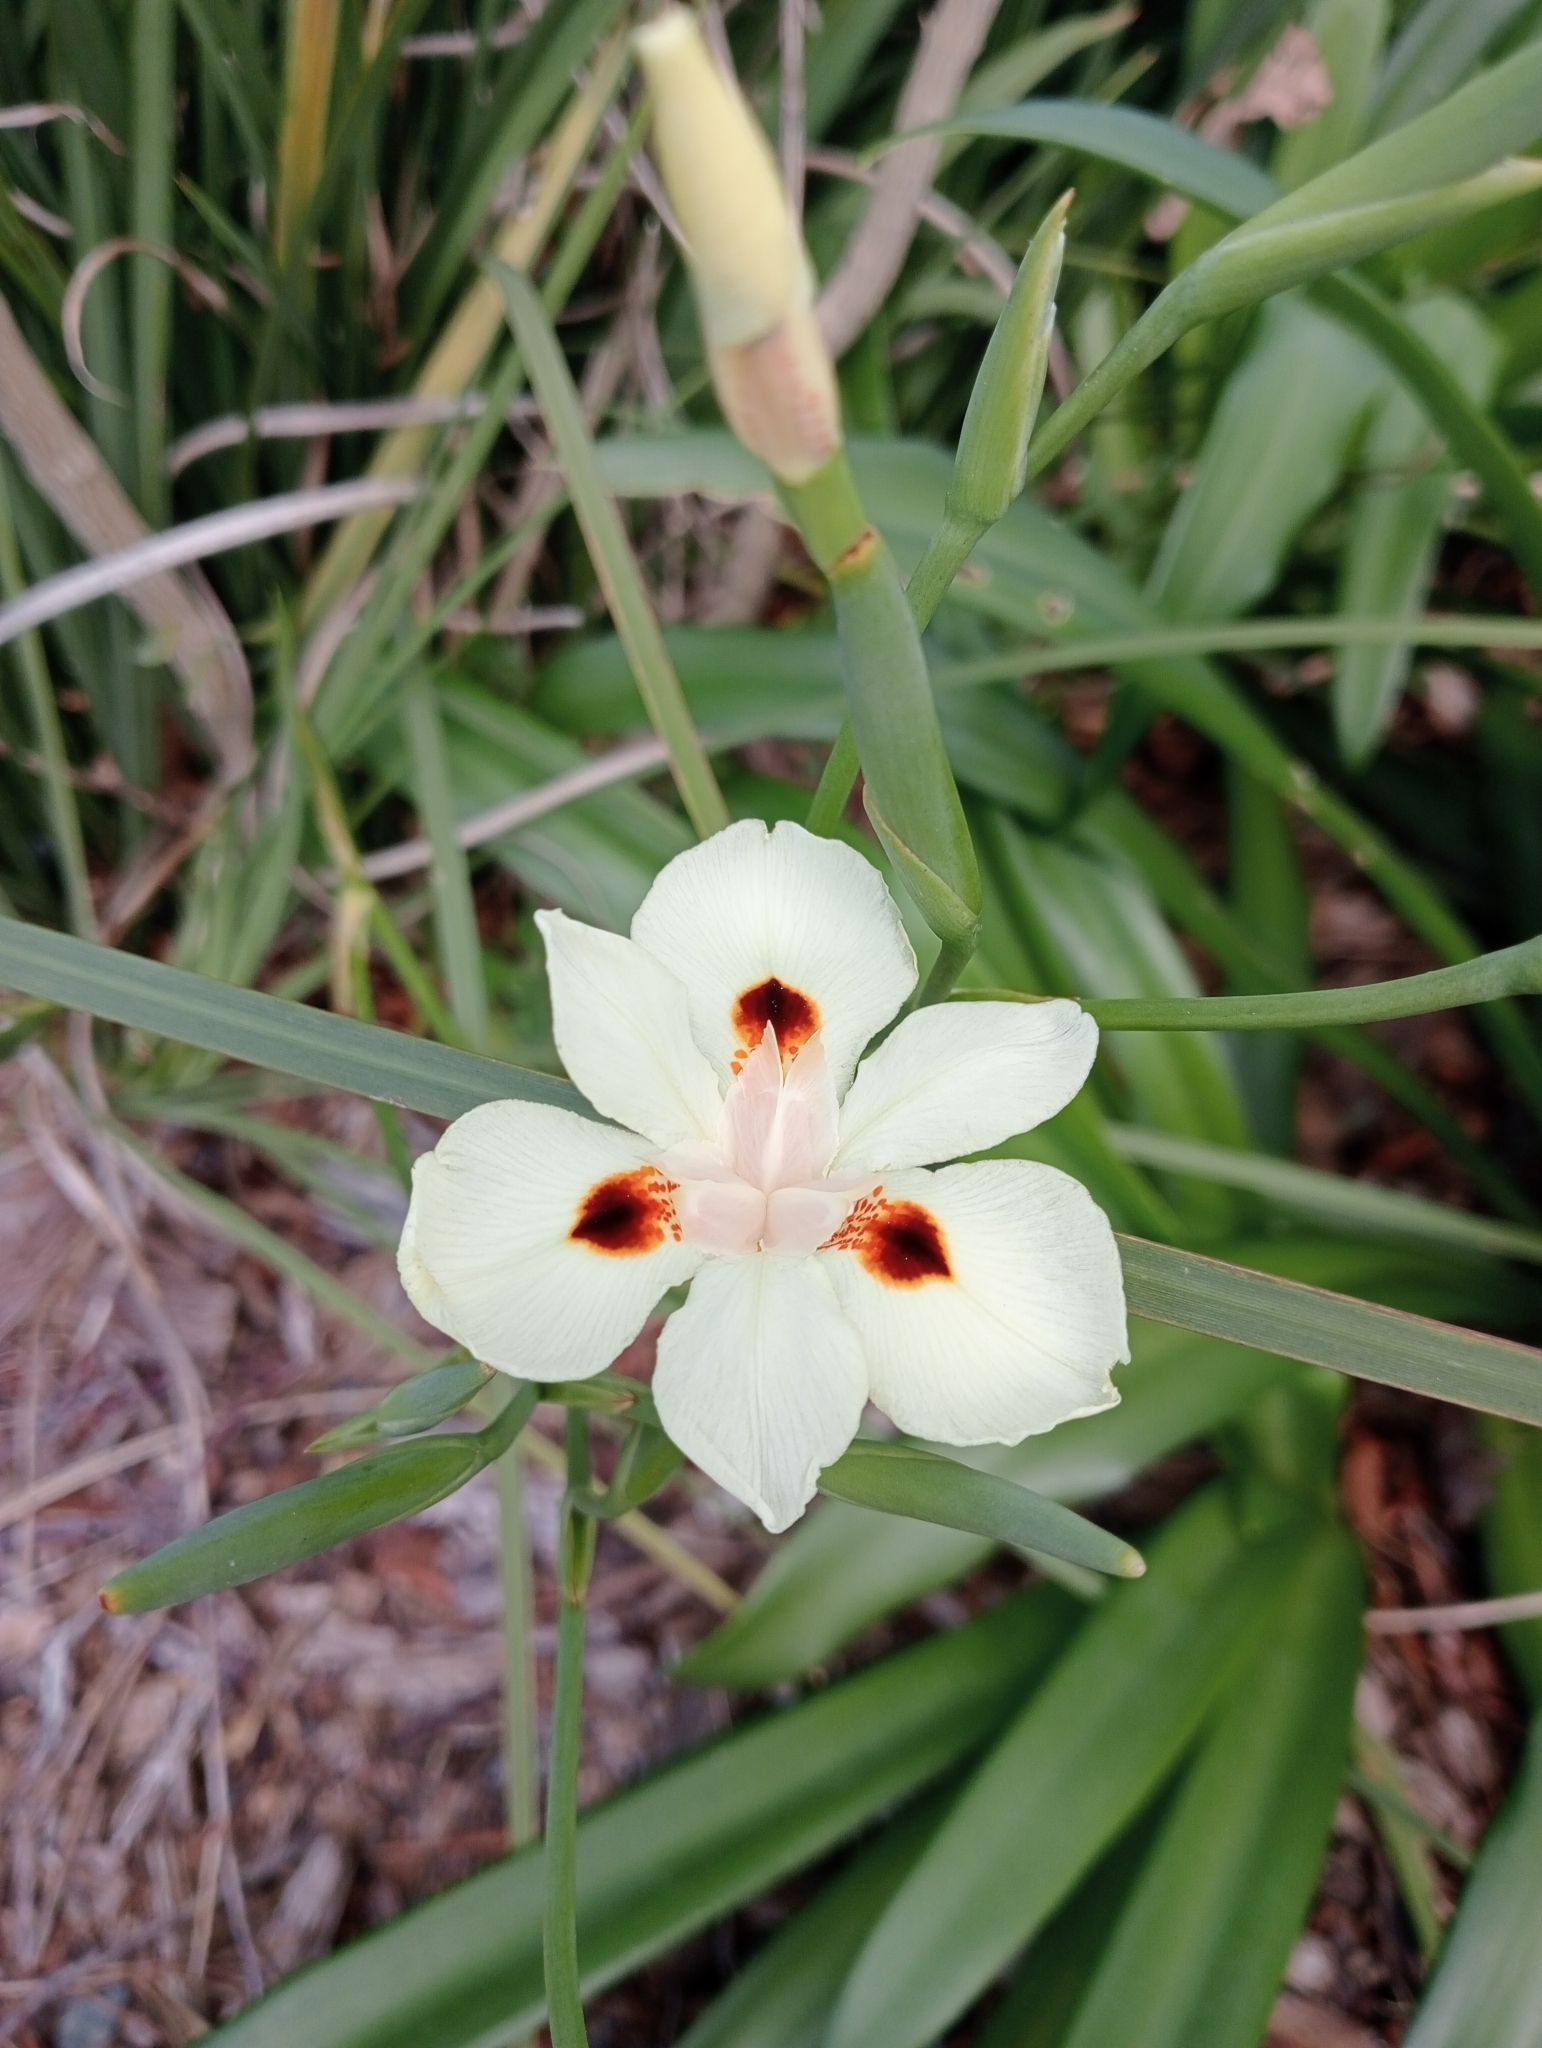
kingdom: Plantae
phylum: Tracheophyta
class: Liliopsida
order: Asparagales
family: Iridaceae
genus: Dietes
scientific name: Dietes bicolor
